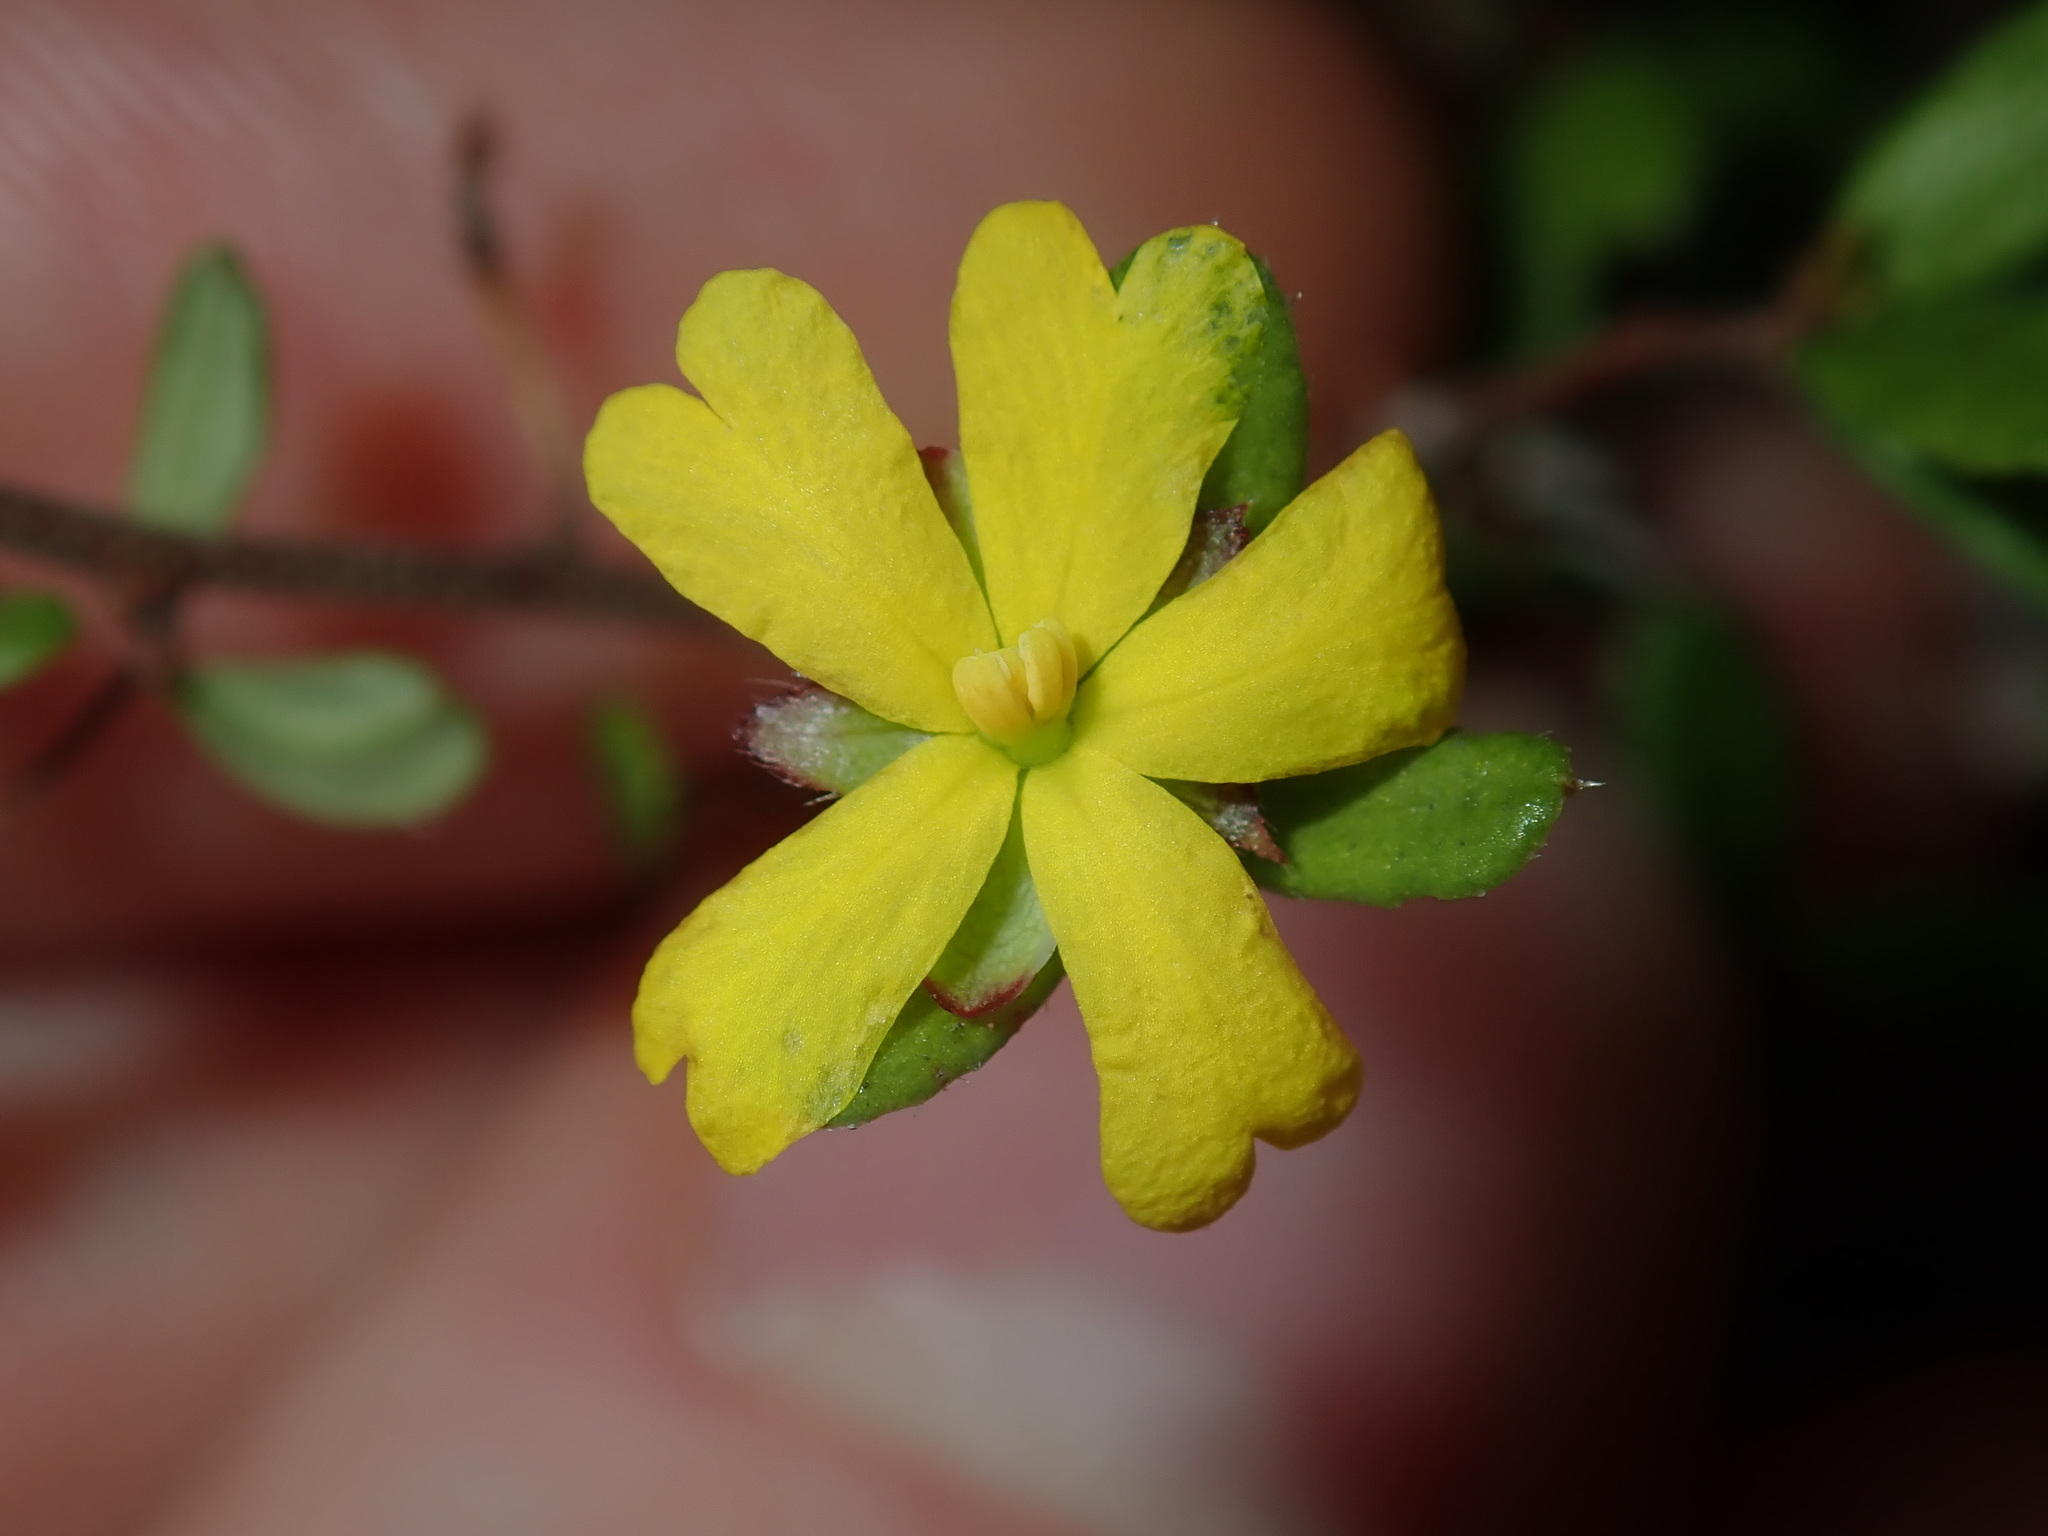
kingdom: Plantae
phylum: Tracheophyta
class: Magnoliopsida
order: Dilleniales
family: Dilleniaceae
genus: Hibbertia
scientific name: Hibbertia empetrifolia
